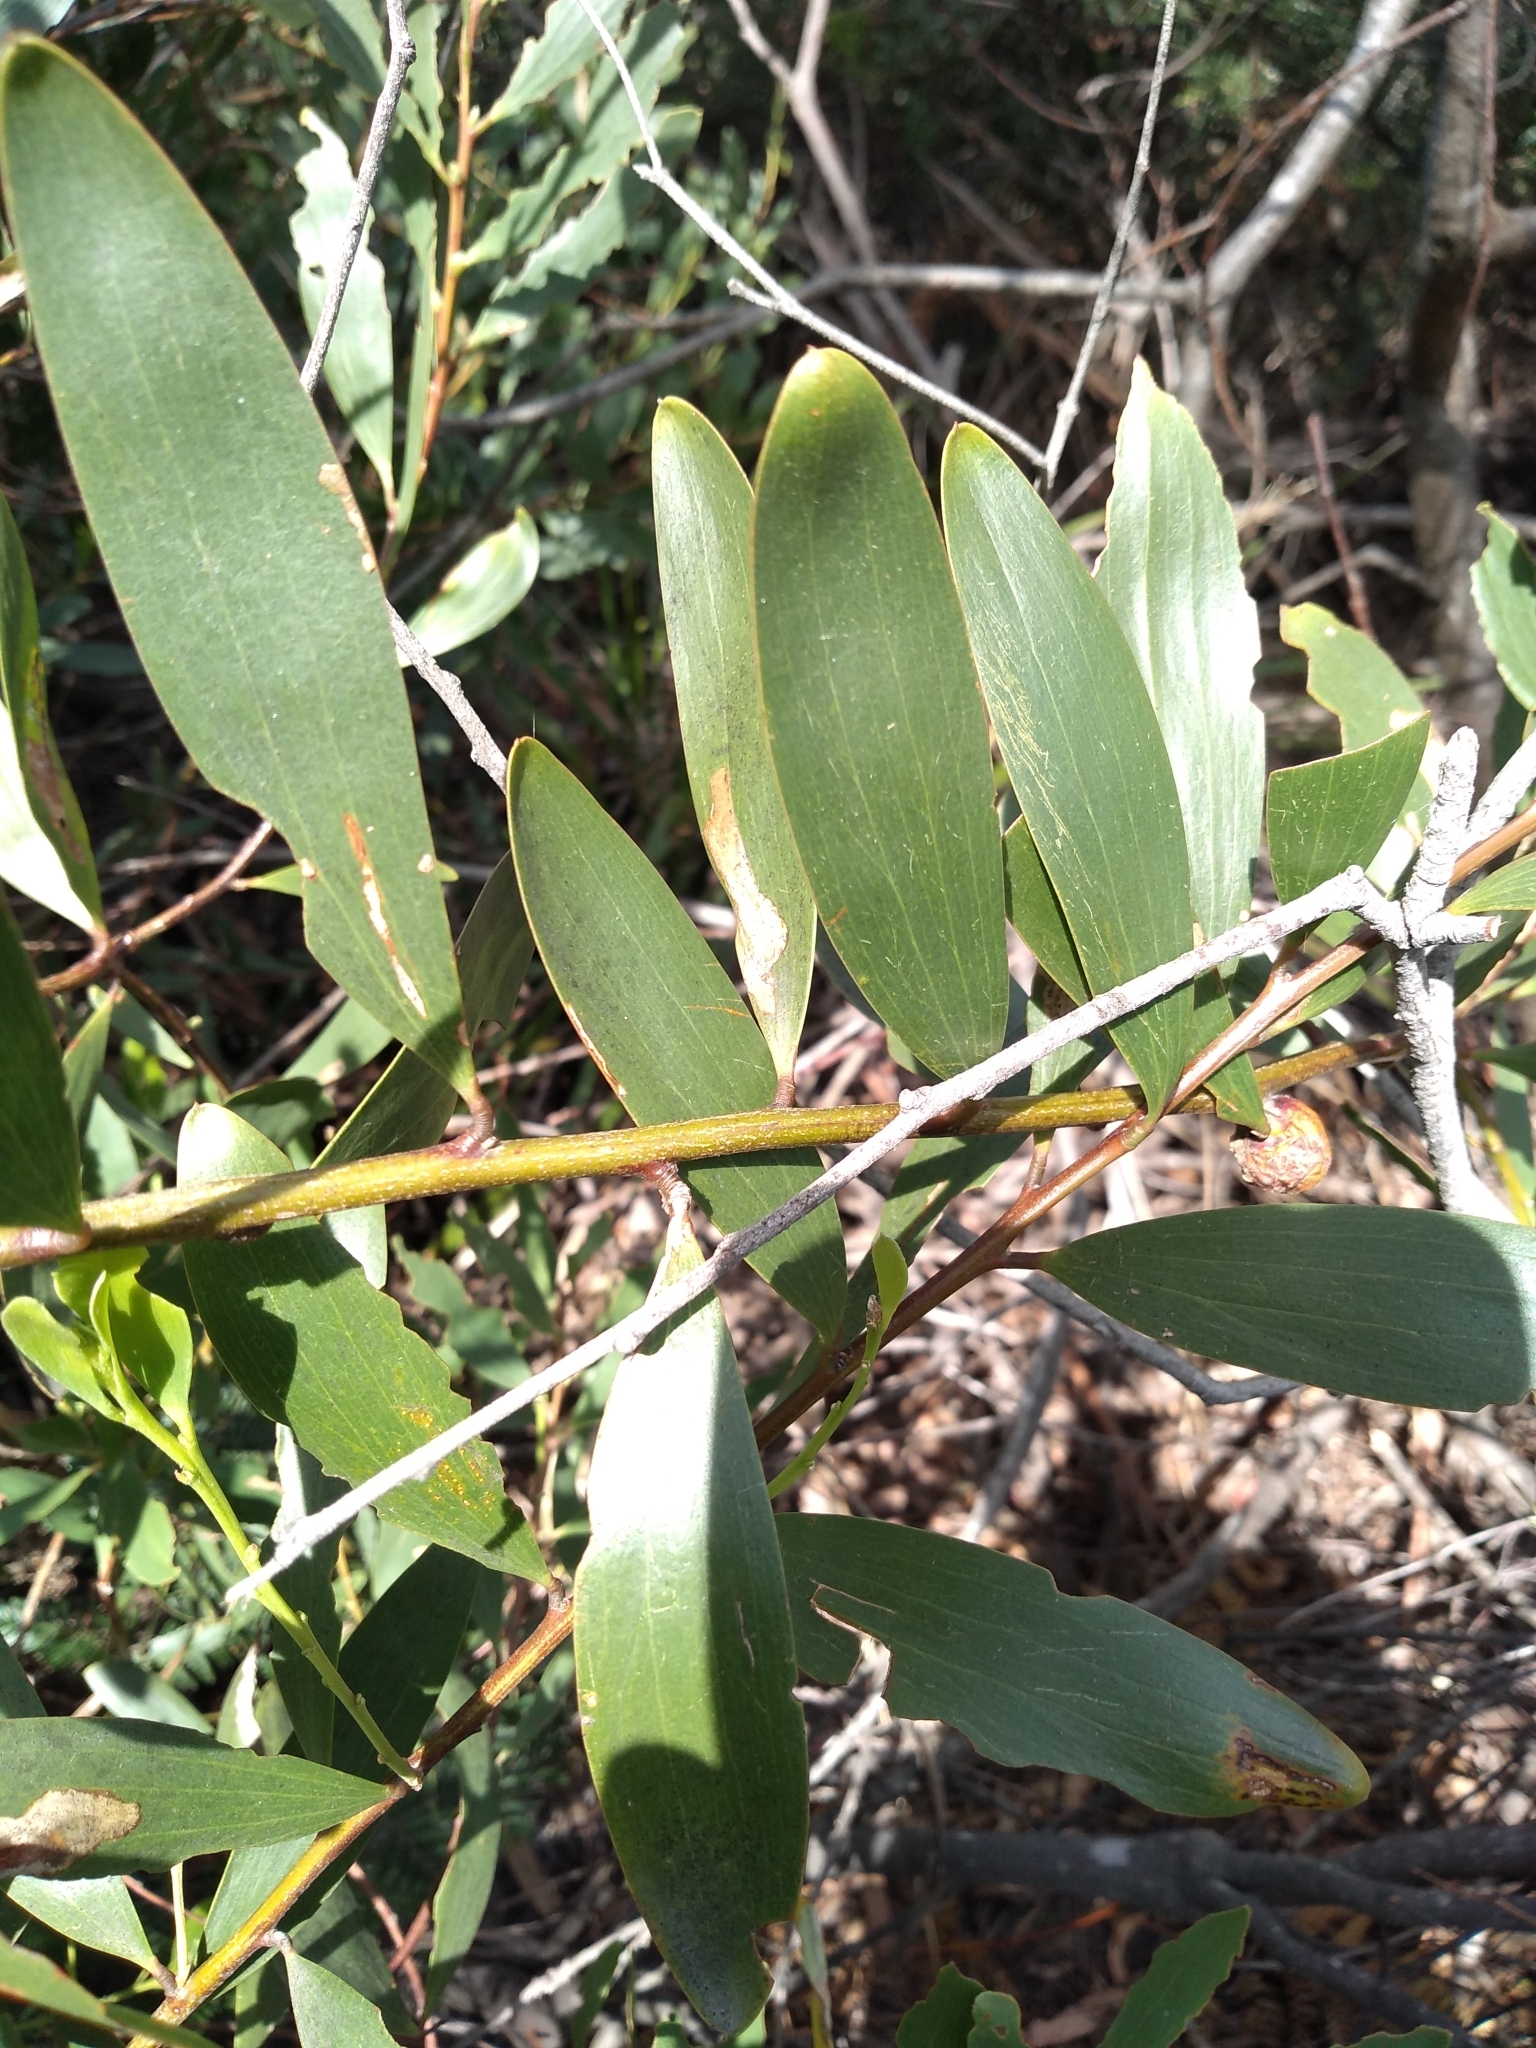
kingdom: Plantae
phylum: Tracheophyta
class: Magnoliopsida
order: Fabales
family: Fabaceae
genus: Acacia
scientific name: Acacia longifolia
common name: Sydney golden wattle
